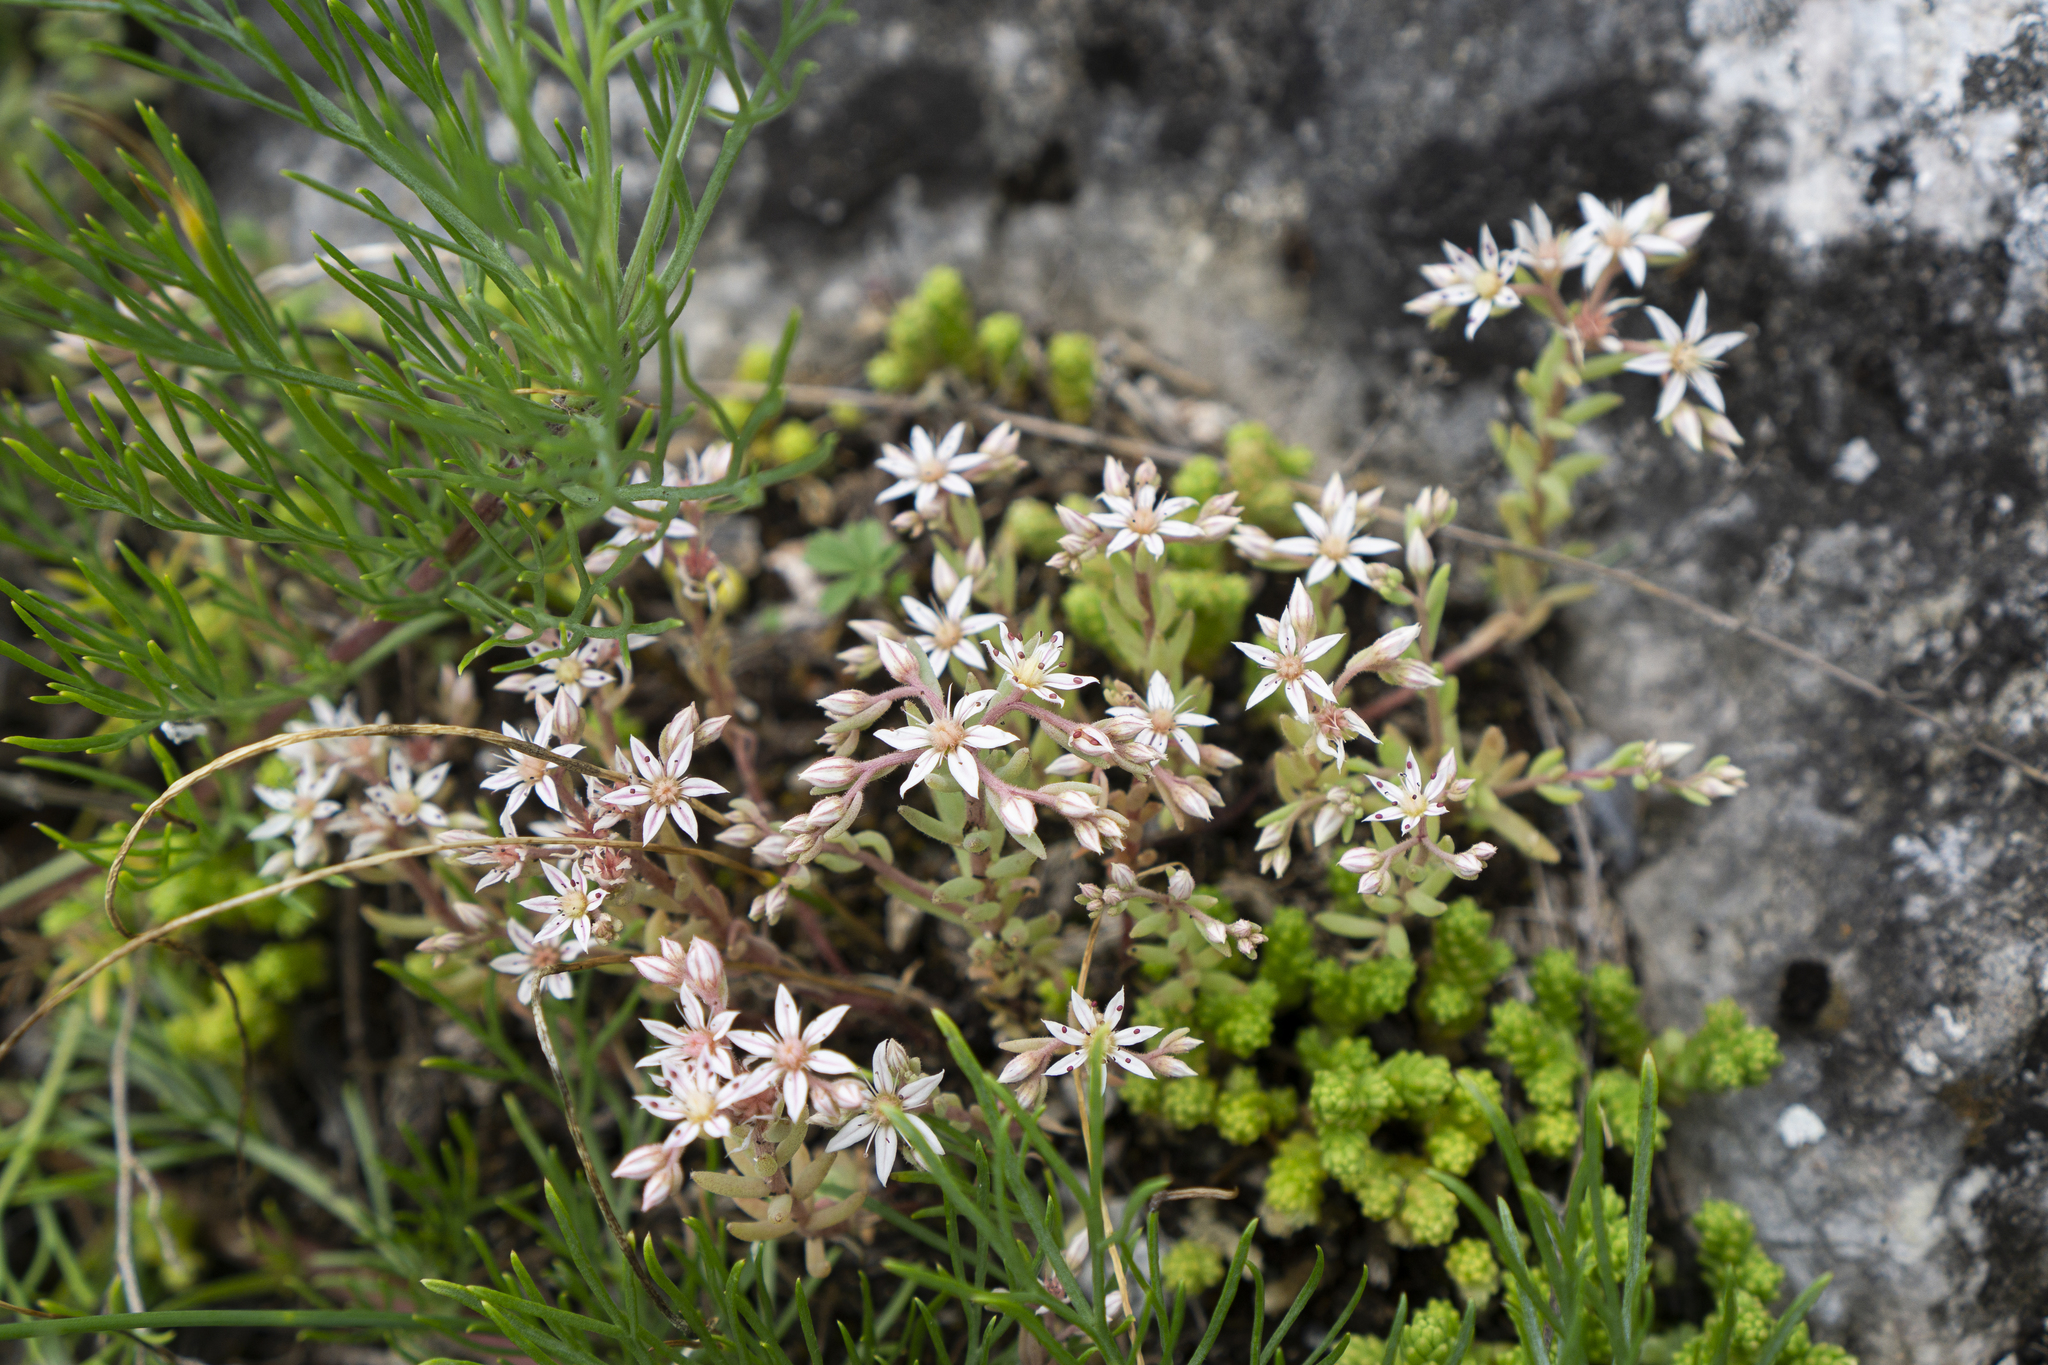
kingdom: Plantae
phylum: Tracheophyta
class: Magnoliopsida
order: Saxifragales
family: Crassulaceae
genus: Sedum
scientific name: Sedum hispanicum
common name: Spanish stonecrop
